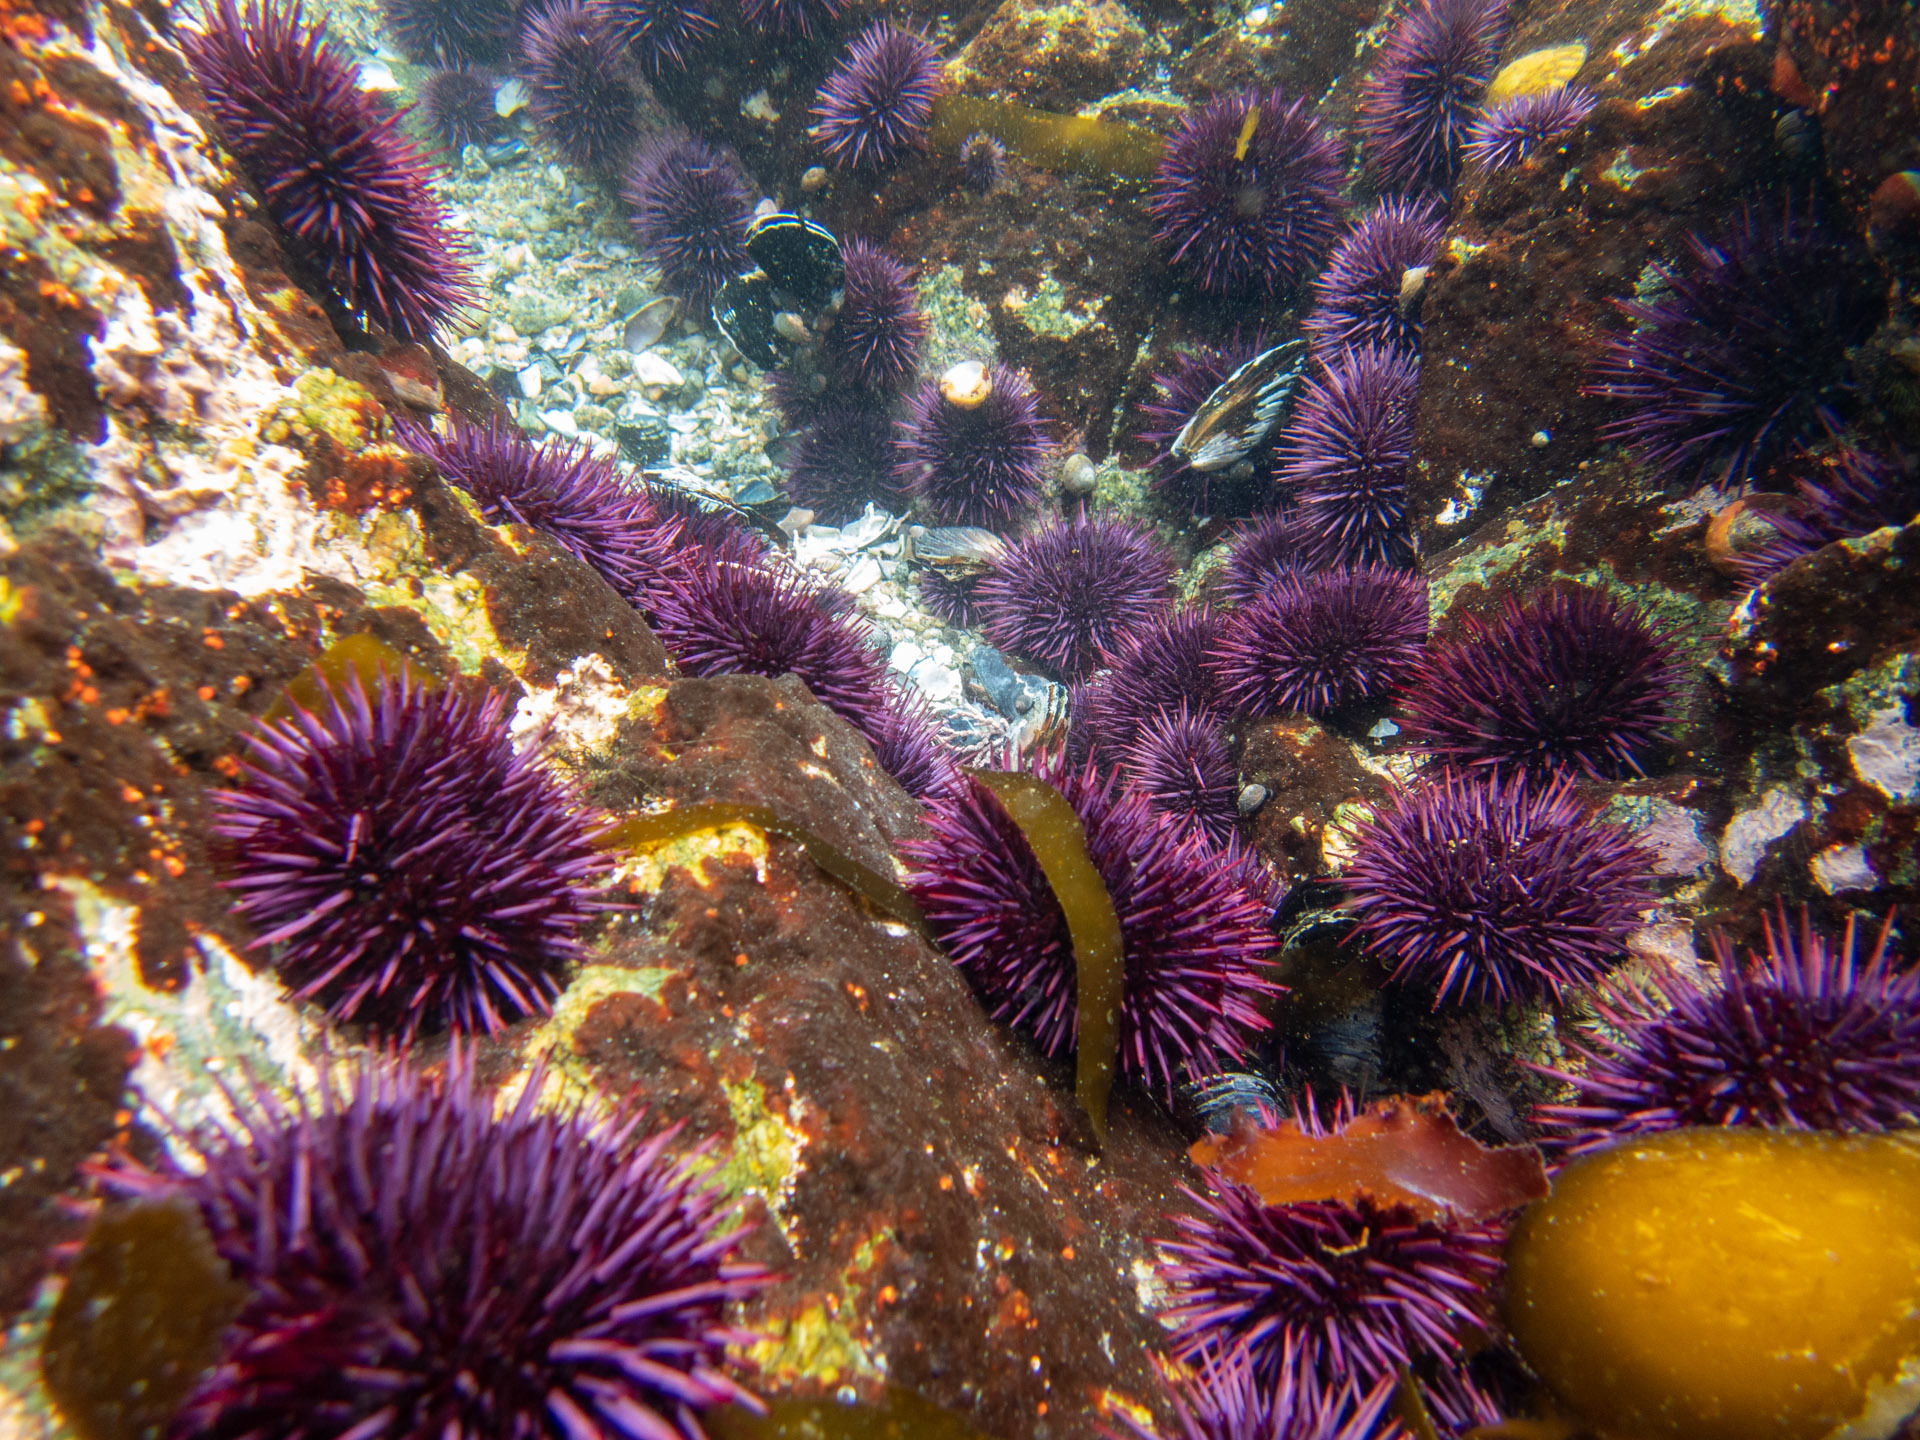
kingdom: Animalia
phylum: Echinodermata
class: Echinoidea
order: Camarodonta
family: Strongylocentrotidae
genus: Strongylocentrotus
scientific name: Strongylocentrotus purpuratus
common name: Purple sea urchin
